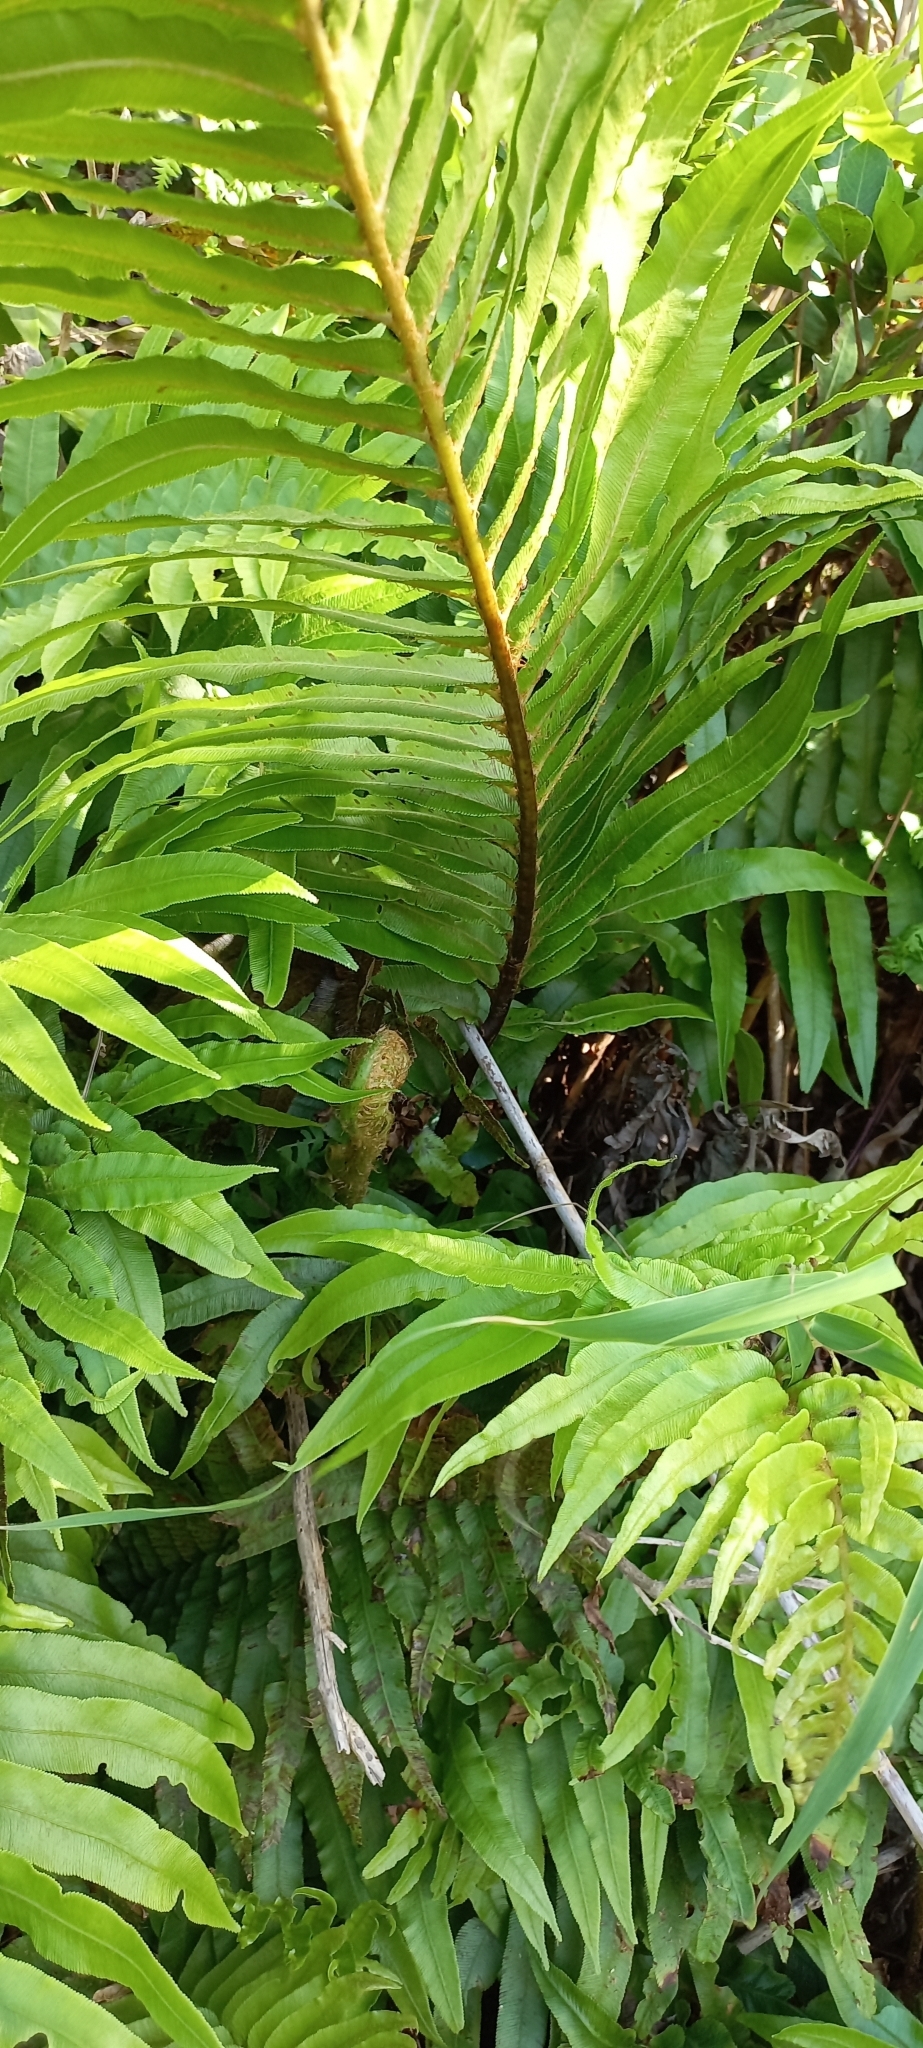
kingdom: Plantae
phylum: Tracheophyta
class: Polypodiopsida
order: Polypodiales
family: Blechnaceae
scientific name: Blechnaceae
